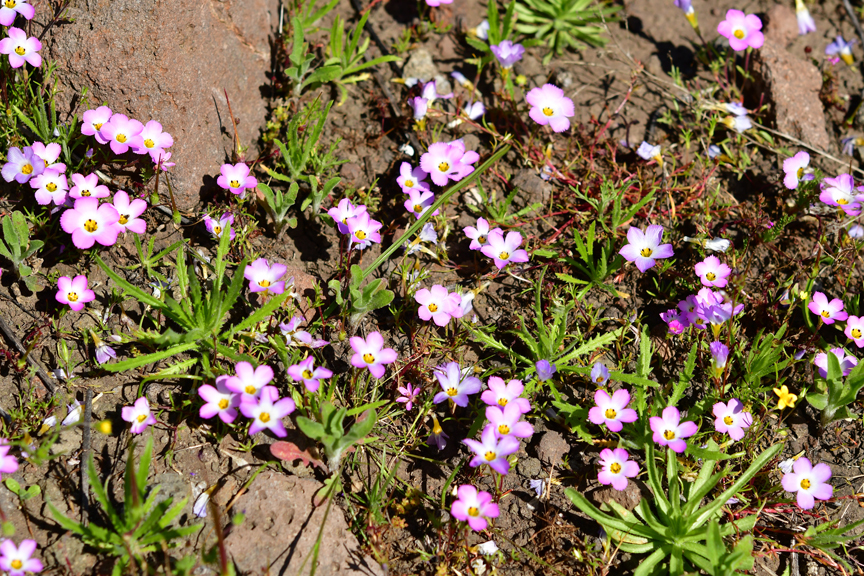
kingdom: Plantae
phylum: Tracheophyta
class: Magnoliopsida
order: Ericales
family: Polemoniaceae
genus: Linanthus
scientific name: Linanthus dianthiflorus
